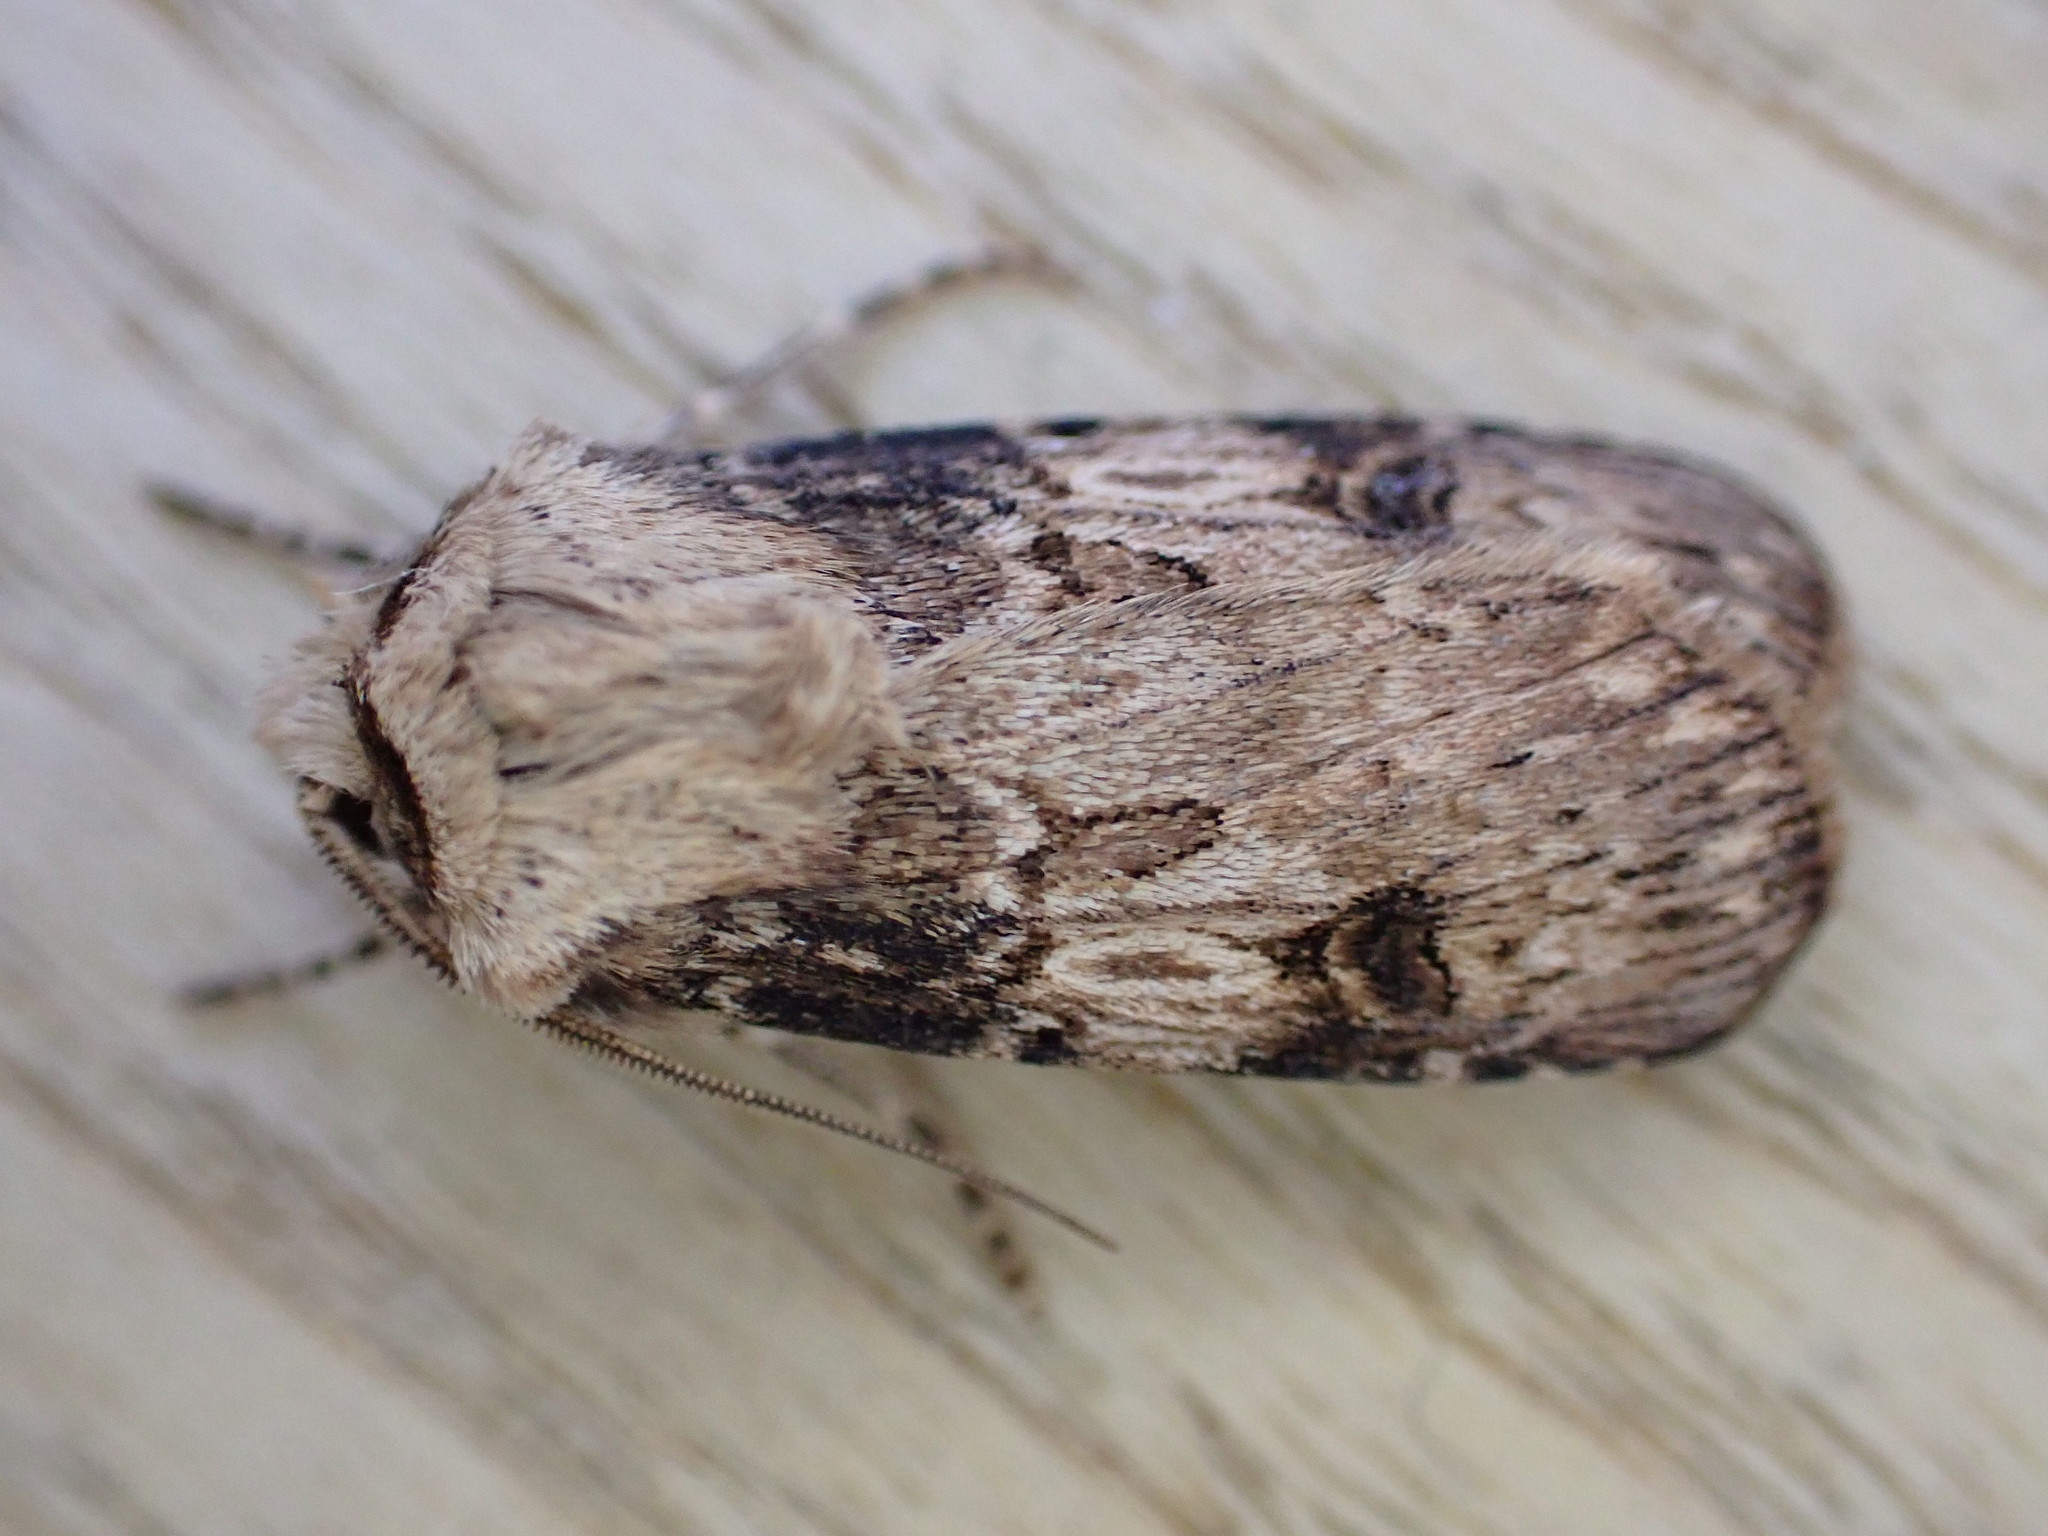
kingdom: Animalia
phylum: Arthropoda
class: Insecta
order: Lepidoptera
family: Noctuidae
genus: Agrotis
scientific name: Agrotis puta
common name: Shuttle-shaped dart
